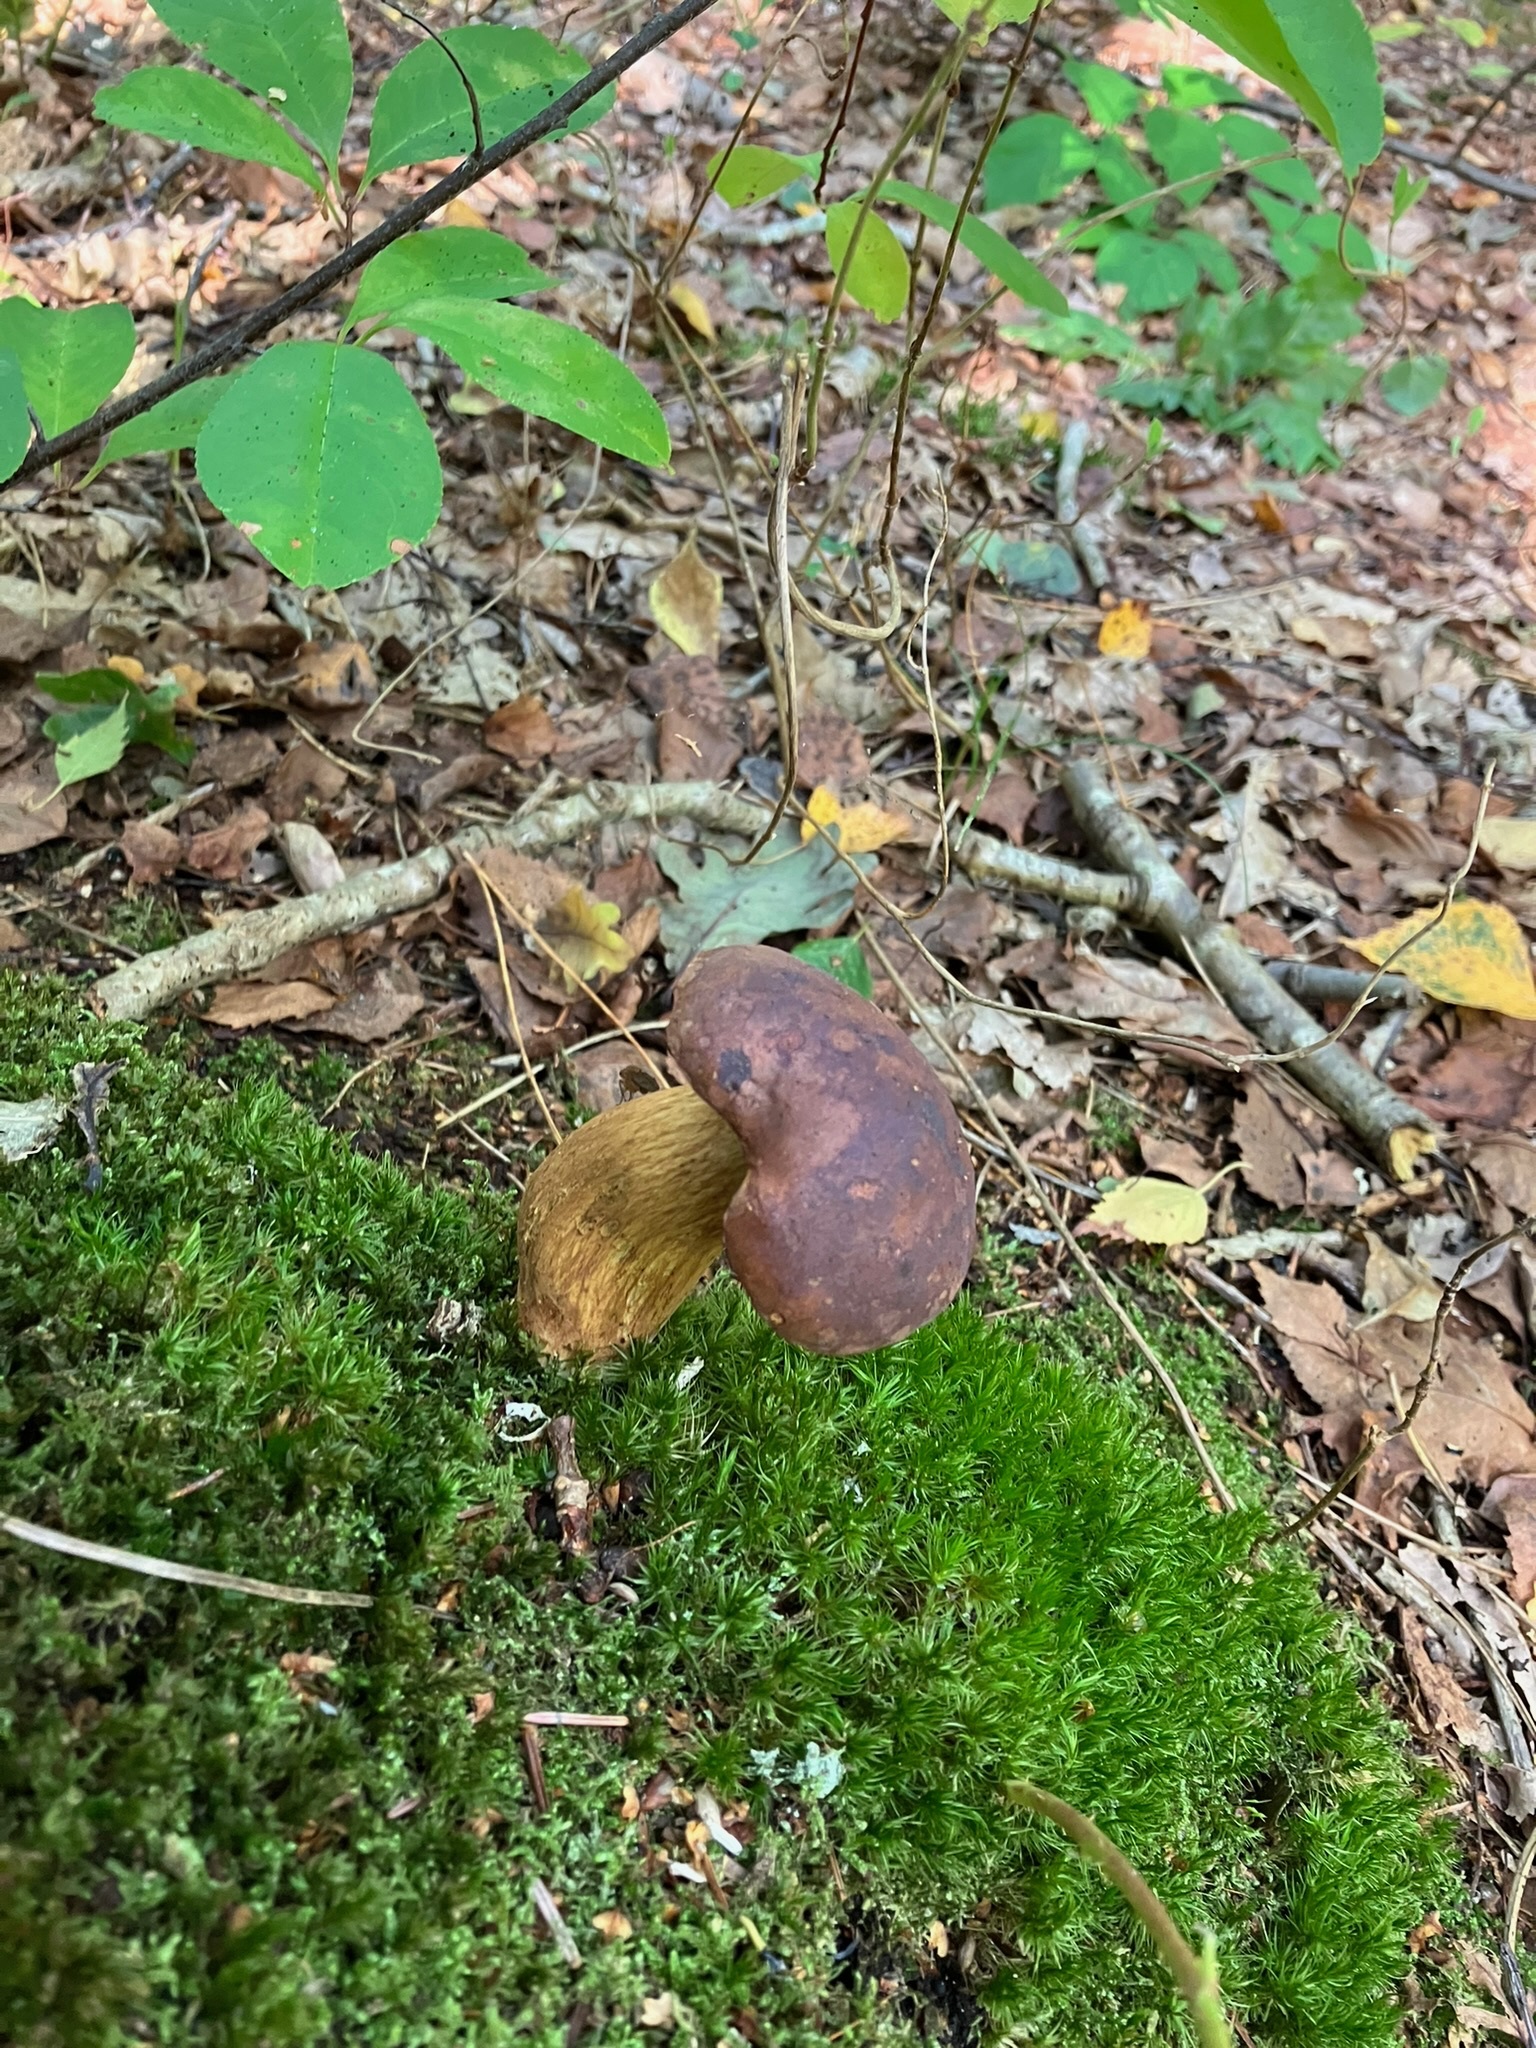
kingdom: Fungi
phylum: Basidiomycota
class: Agaricomycetes
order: Boletales
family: Boletaceae
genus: Imleria
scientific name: Imleria badia
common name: Bay bolete
